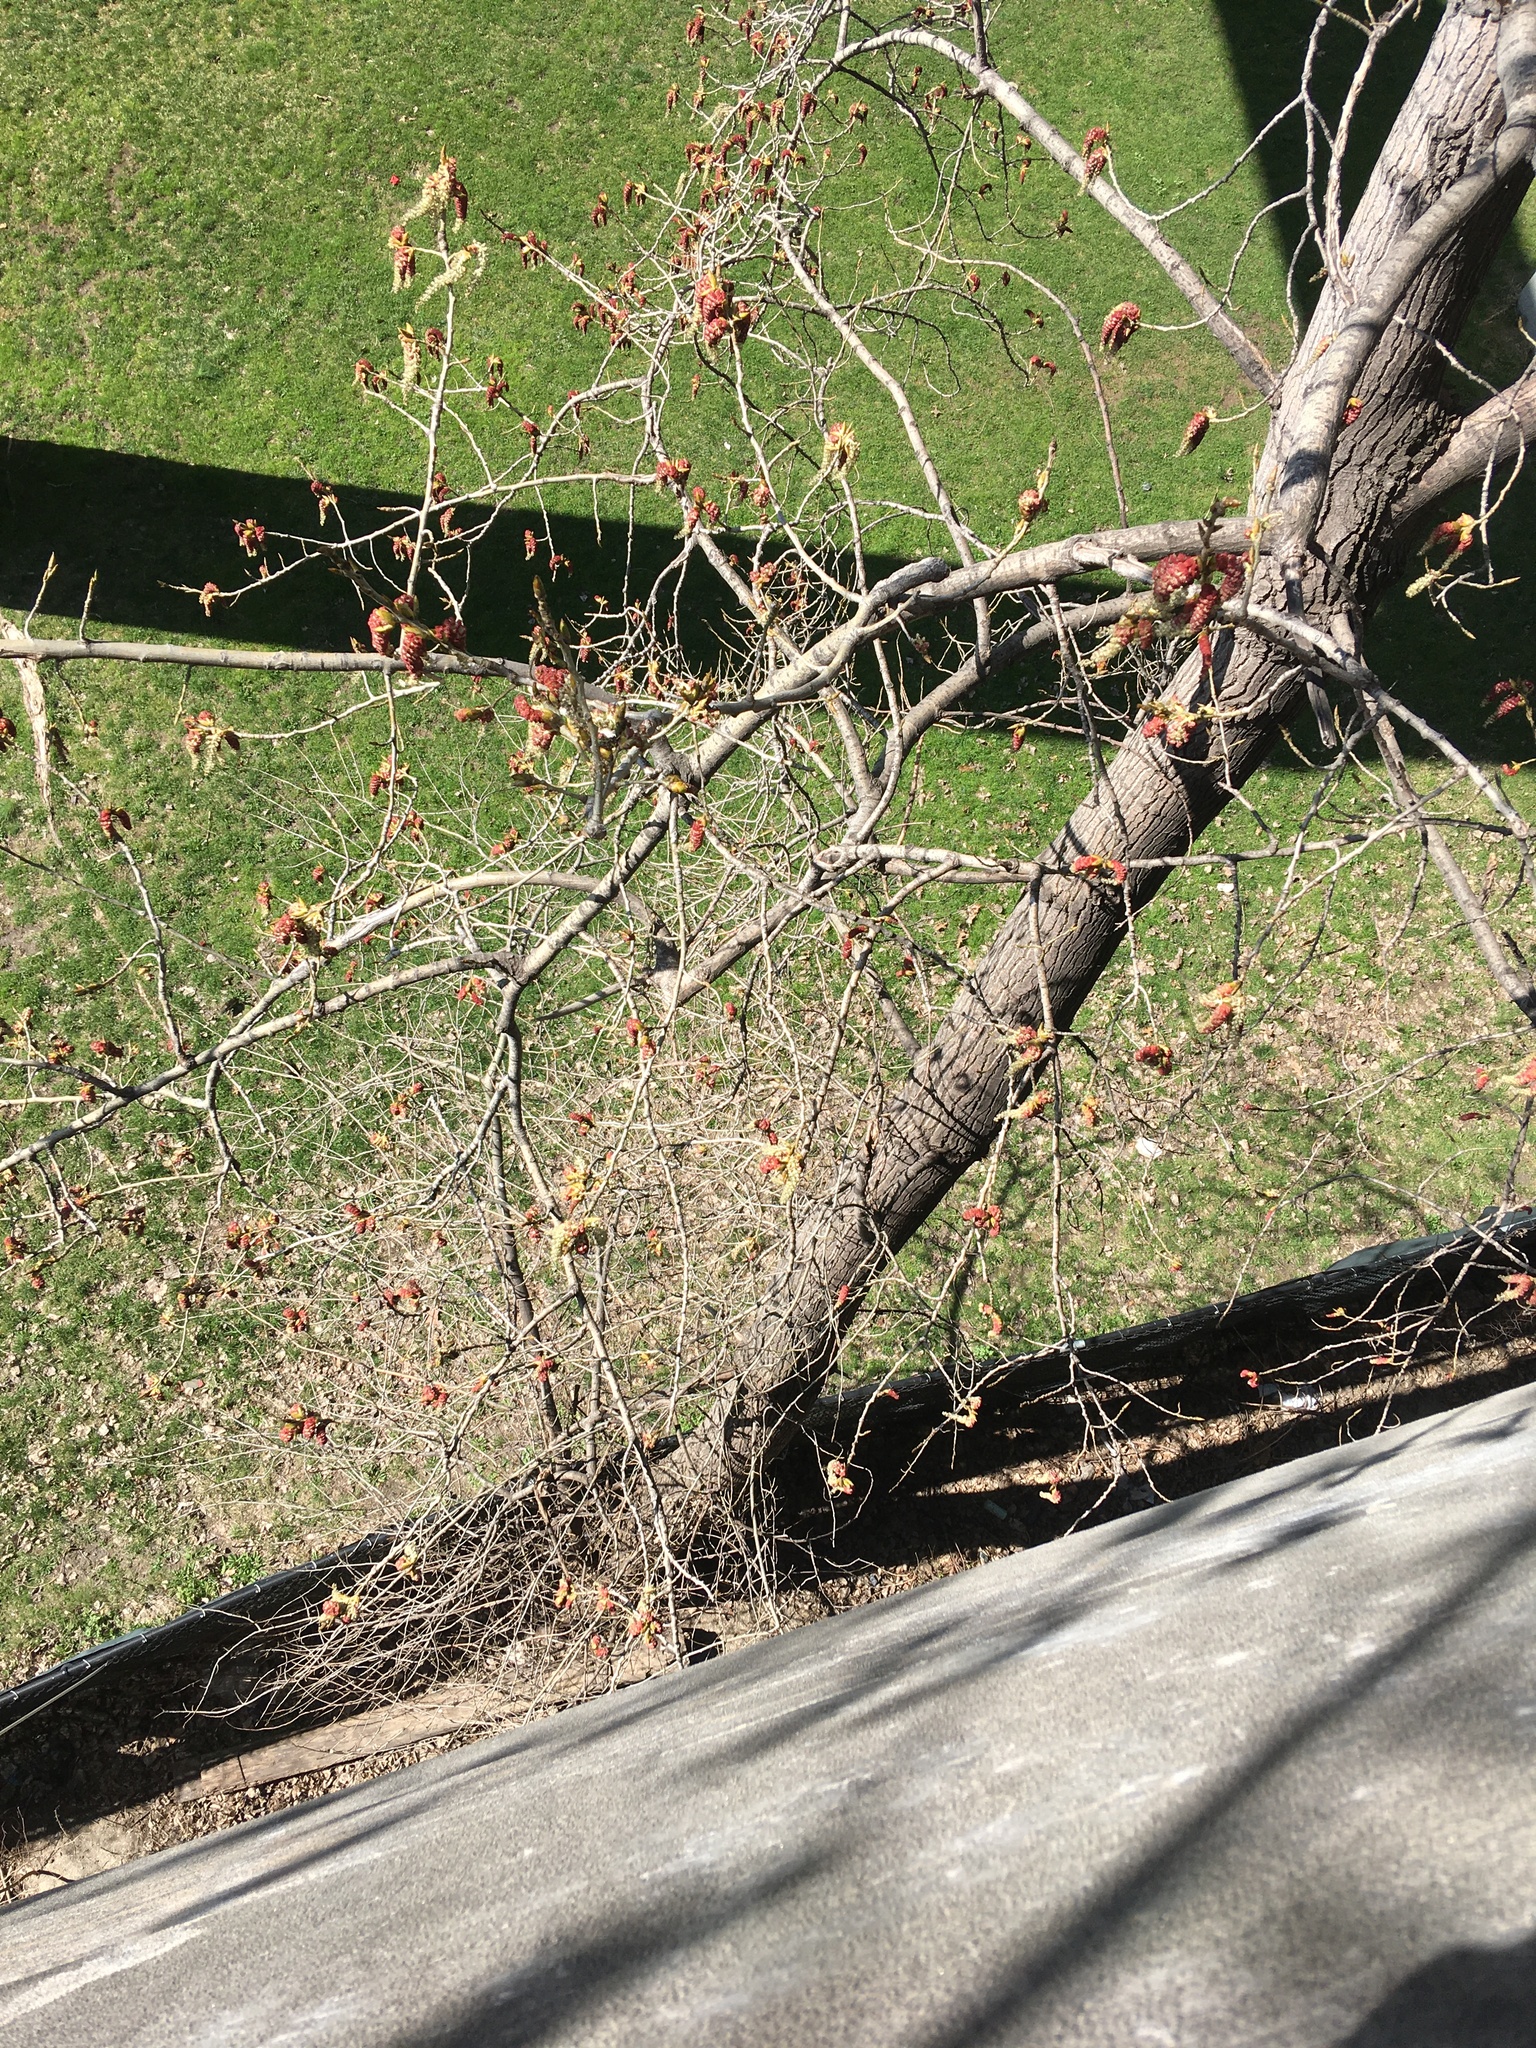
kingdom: Plantae
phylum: Tracheophyta
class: Magnoliopsida
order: Malpighiales
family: Salicaceae
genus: Populus
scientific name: Populus deltoides
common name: Eastern cottonwood
